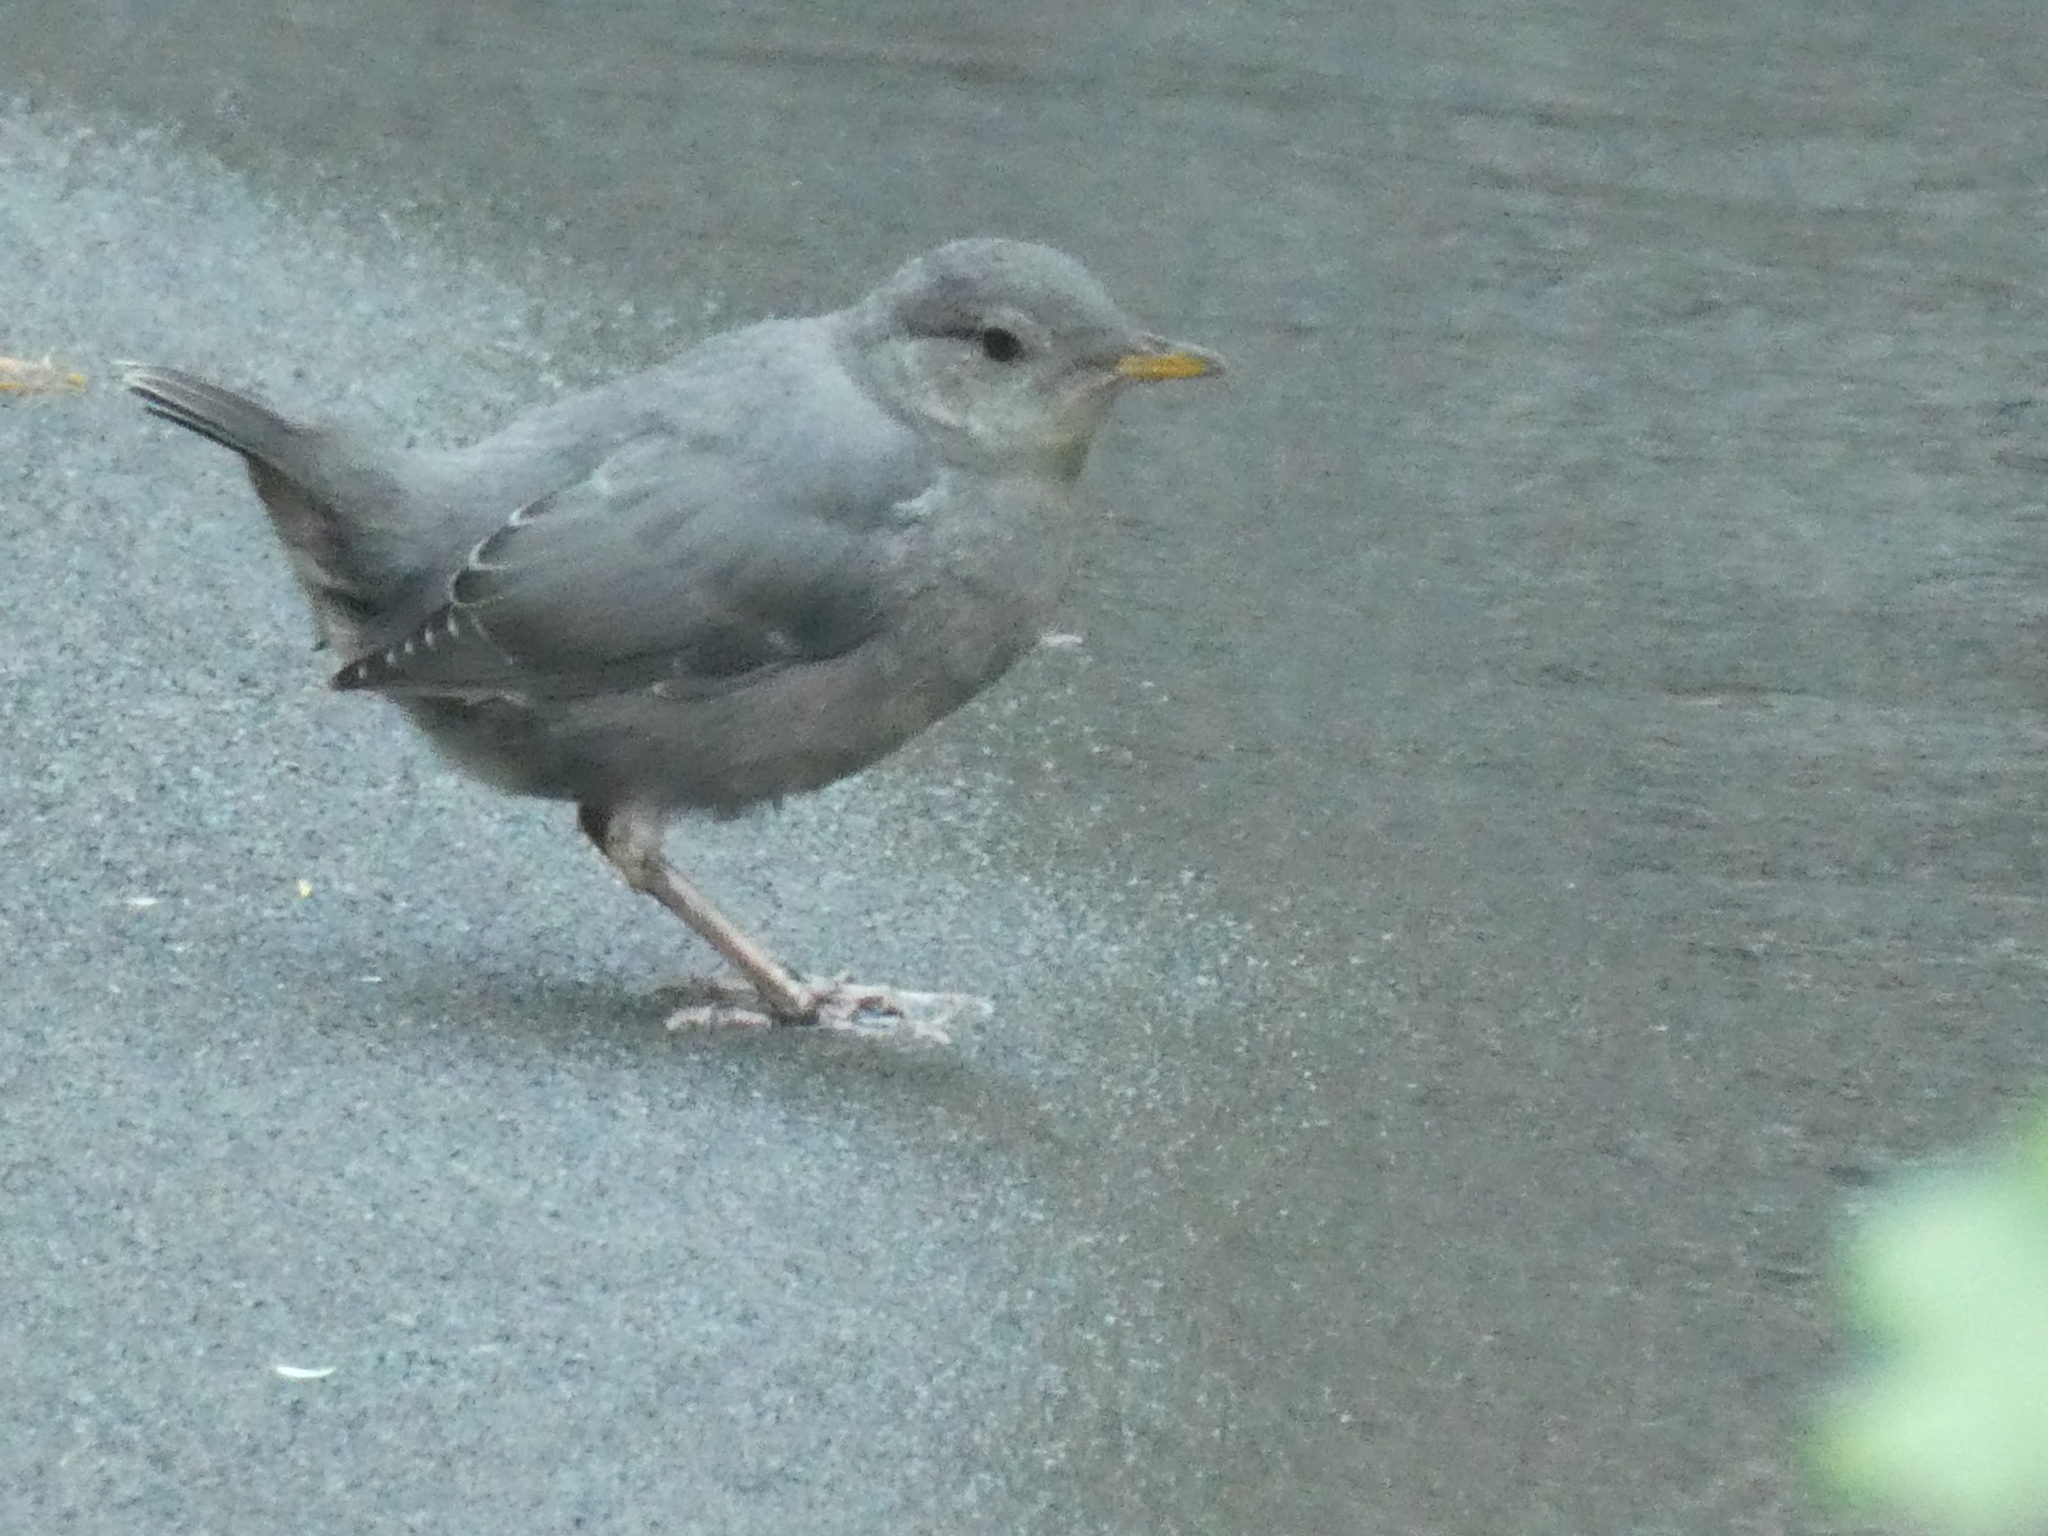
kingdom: Animalia
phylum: Chordata
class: Aves
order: Passeriformes
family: Cinclidae
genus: Cinclus
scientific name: Cinclus mexicanus
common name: American dipper
